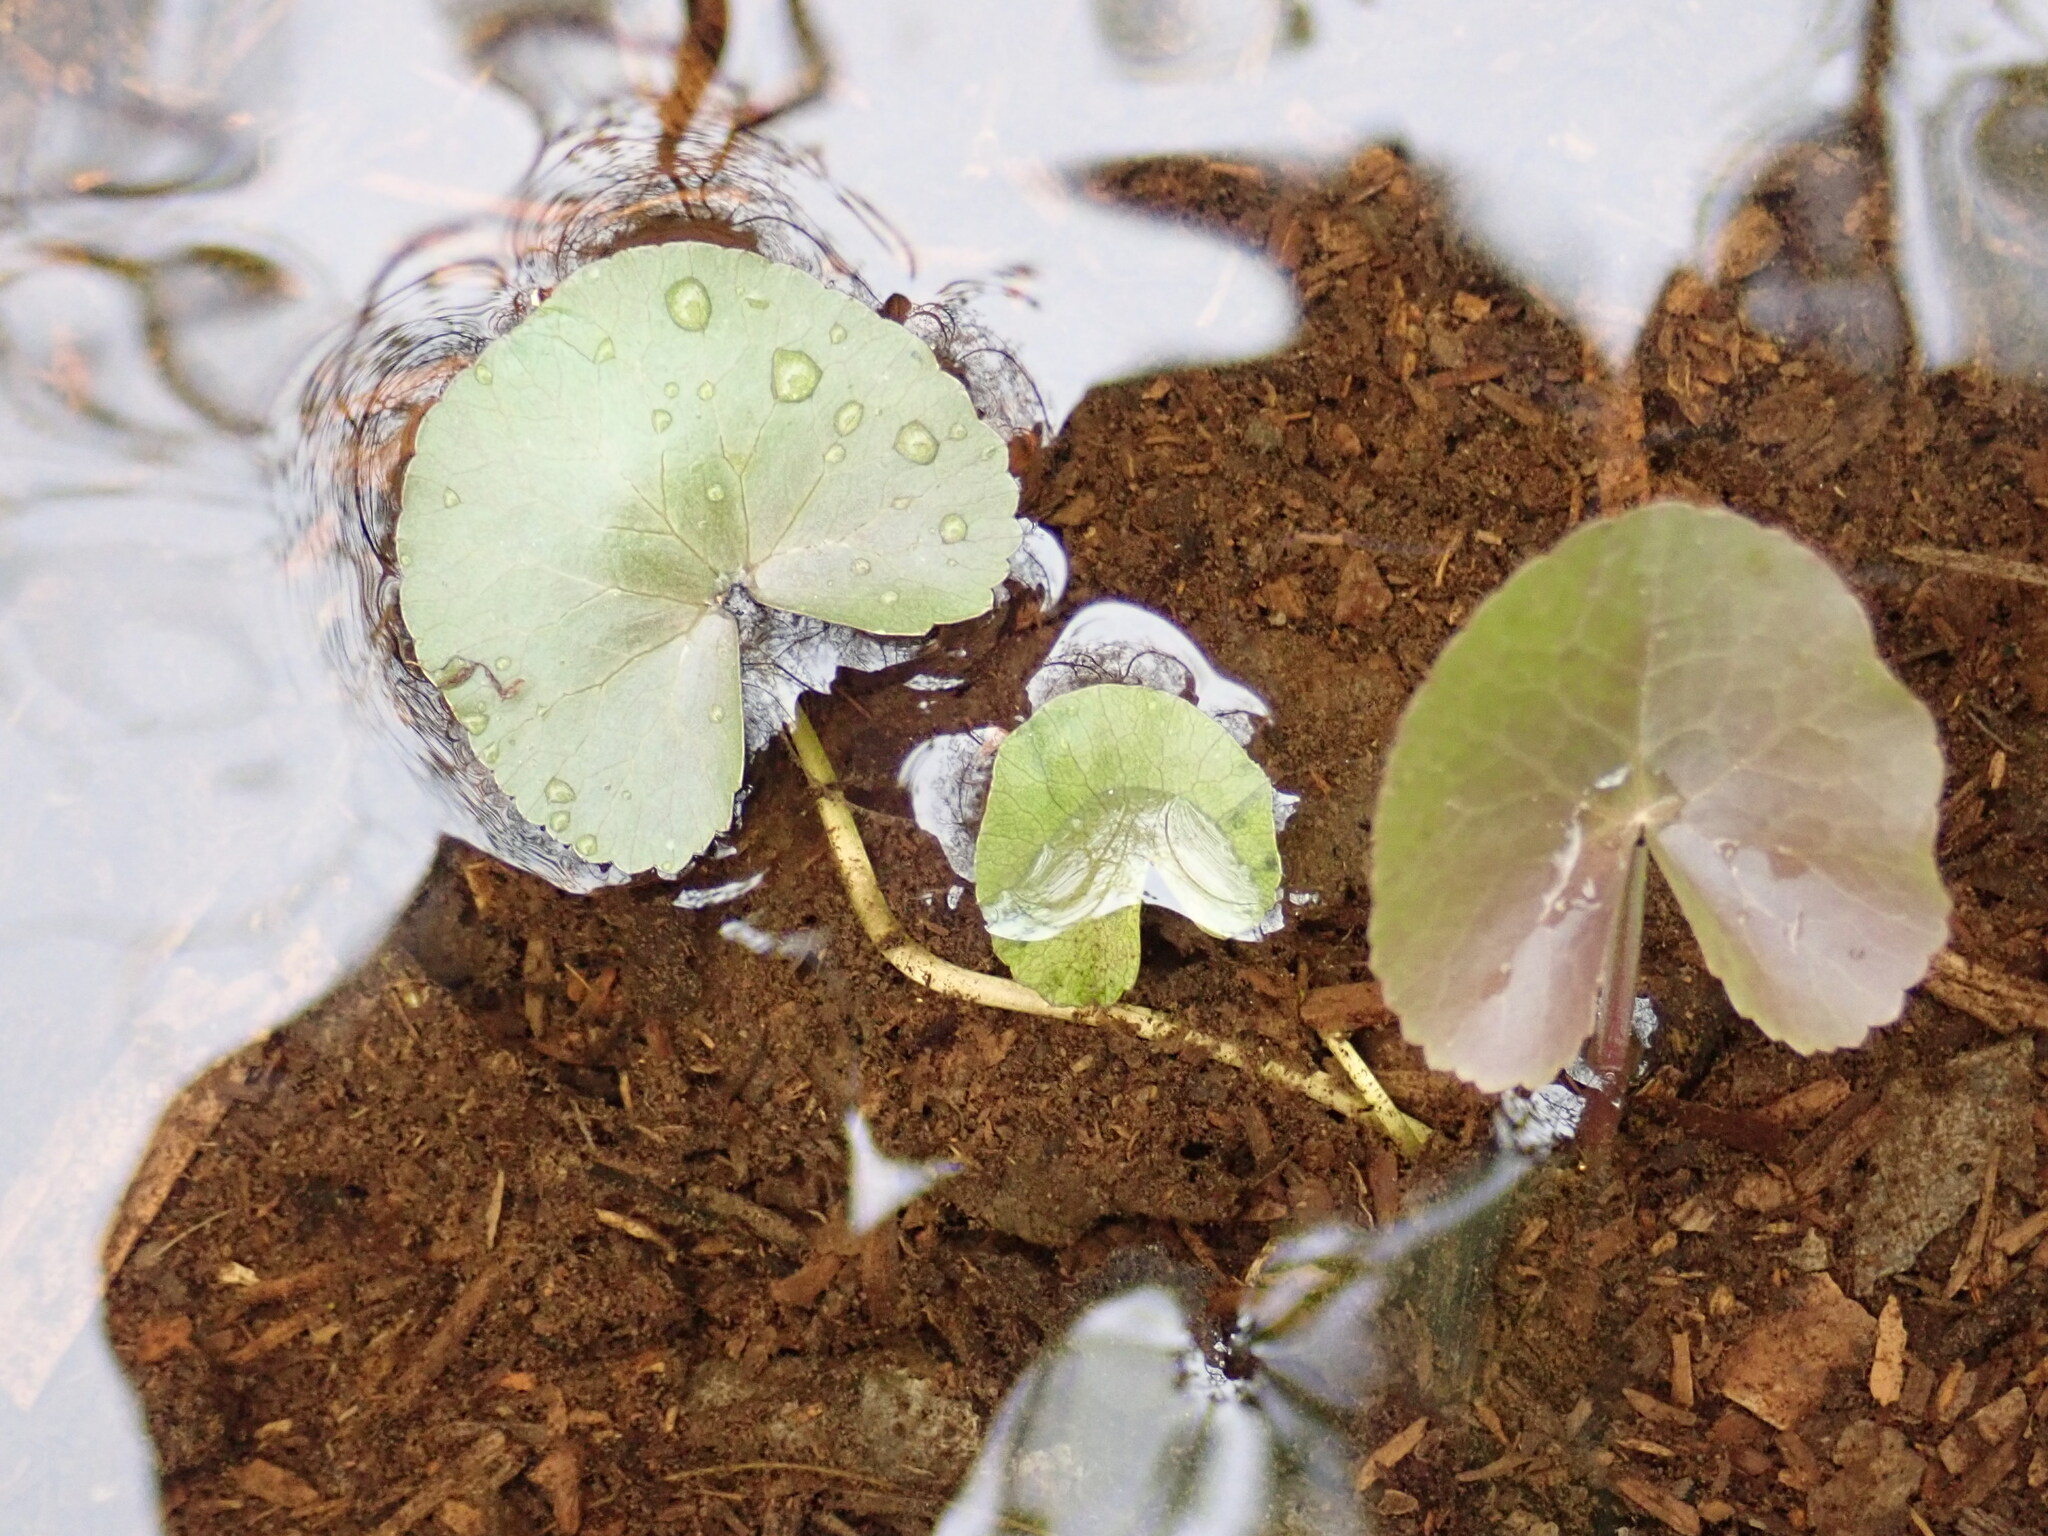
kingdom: Plantae
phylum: Tracheophyta
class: Magnoliopsida
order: Ranunculales
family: Ranunculaceae
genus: Caltha
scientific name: Caltha natans
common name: Floating marsh marigold
